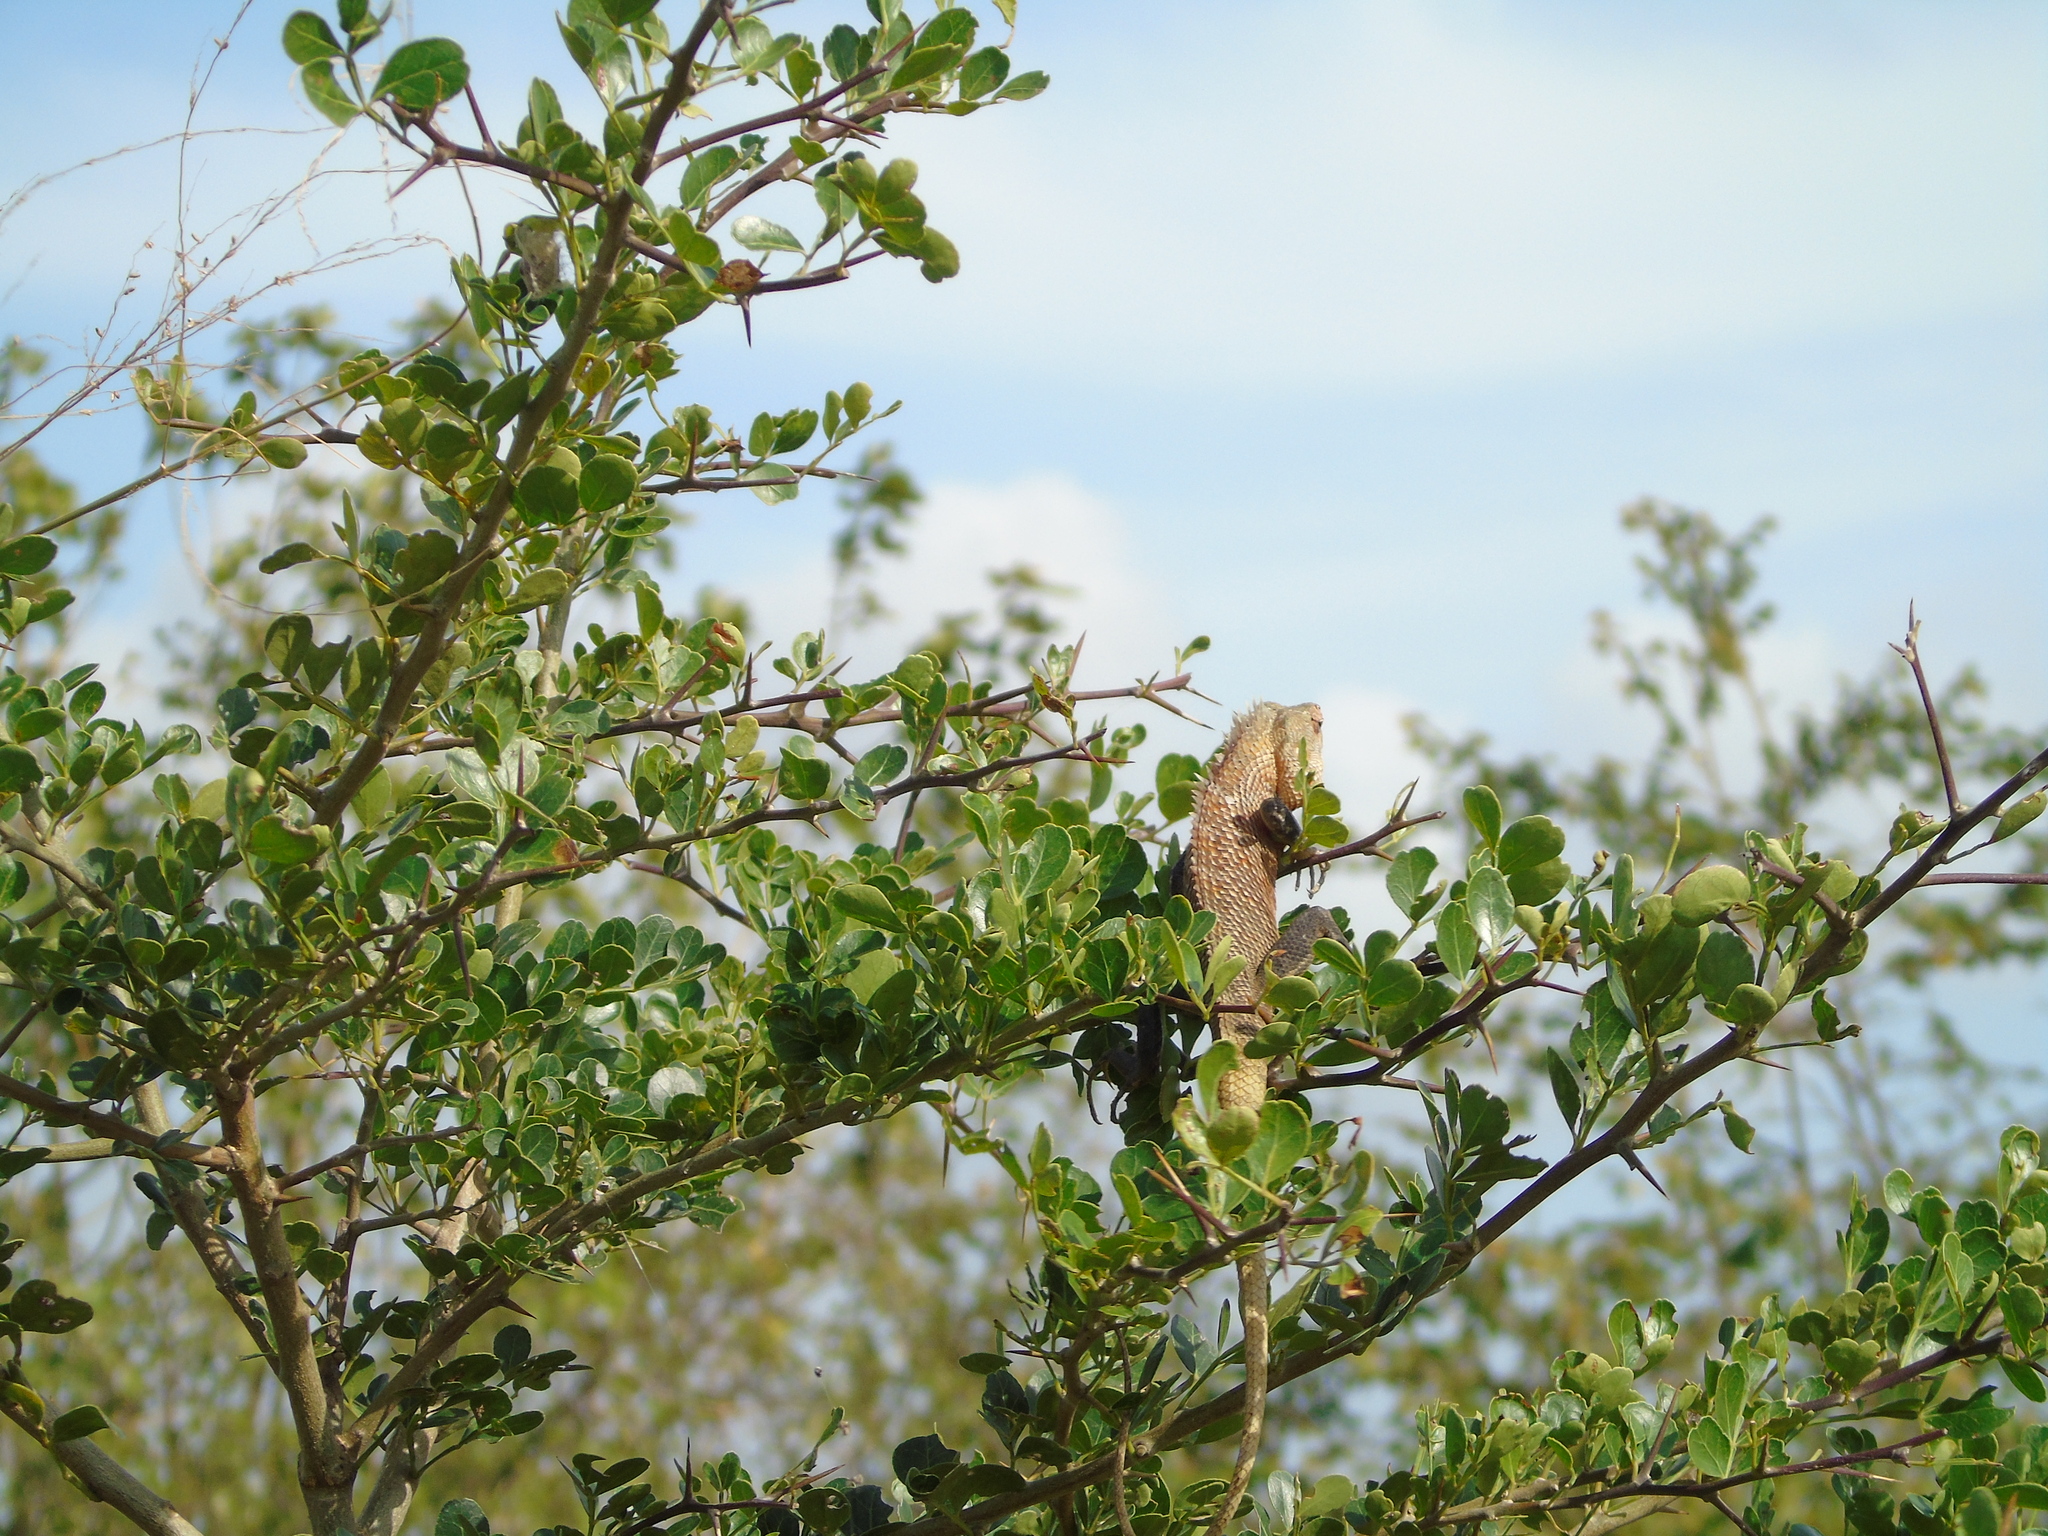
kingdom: Animalia
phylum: Chordata
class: Squamata
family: Agamidae
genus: Calotes
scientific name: Calotes versicolor
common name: Oriental garden lizard
